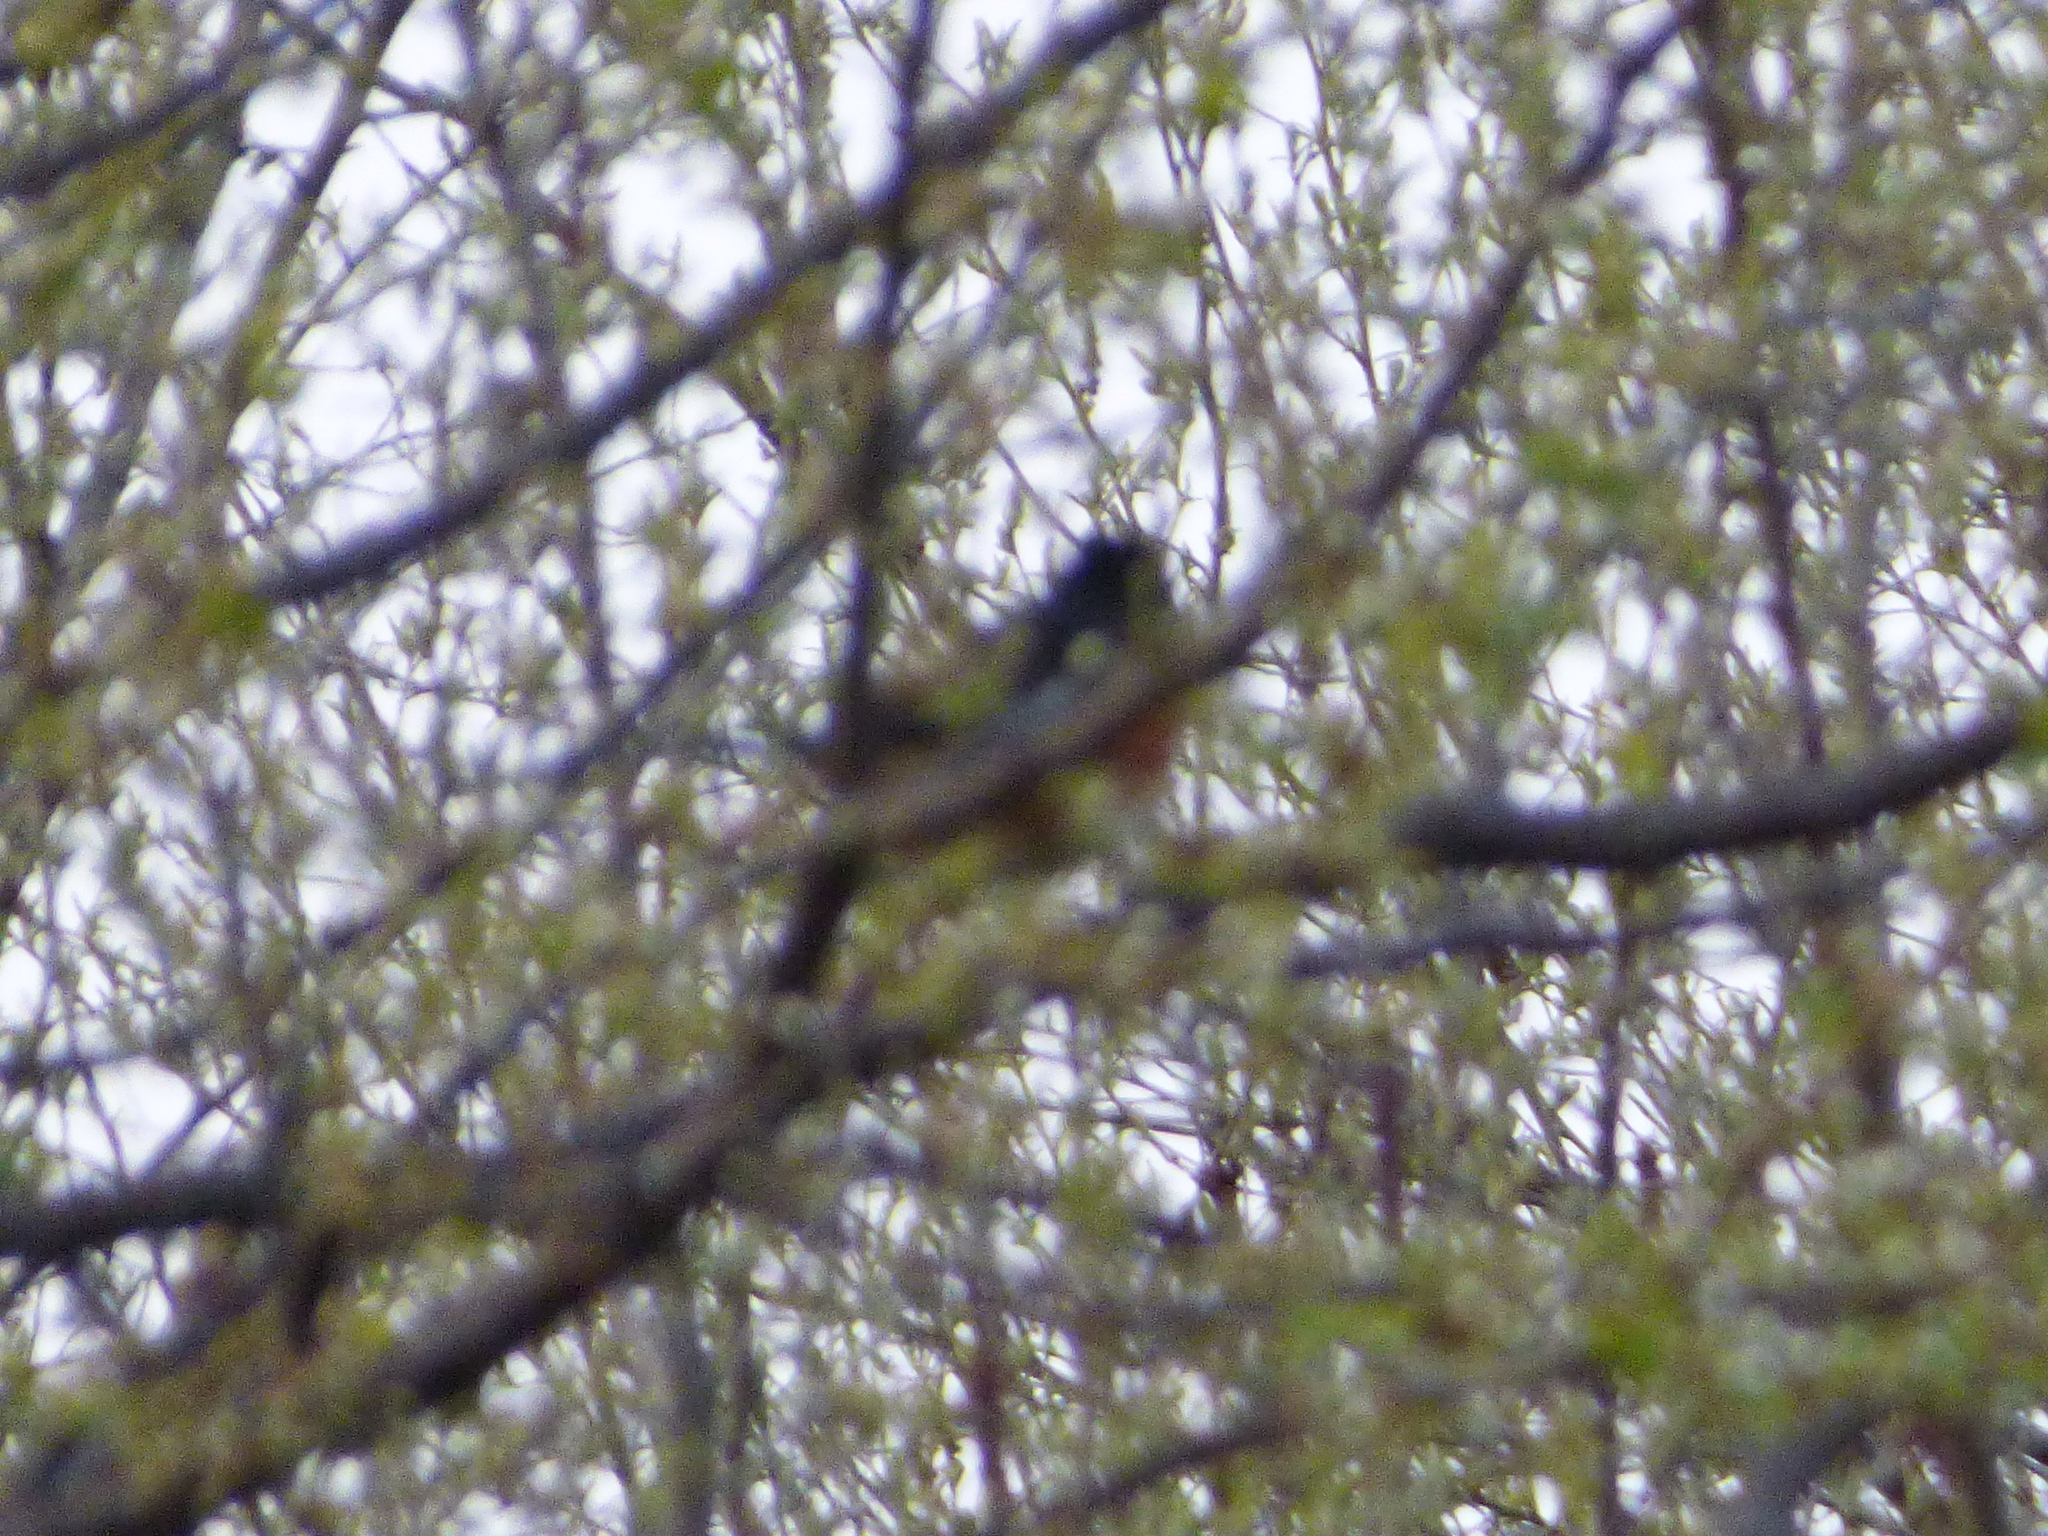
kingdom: Animalia
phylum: Chordata
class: Aves
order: Passeriformes
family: Passerellidae
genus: Pipilo
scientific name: Pipilo erythrophthalmus
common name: Eastern towhee
